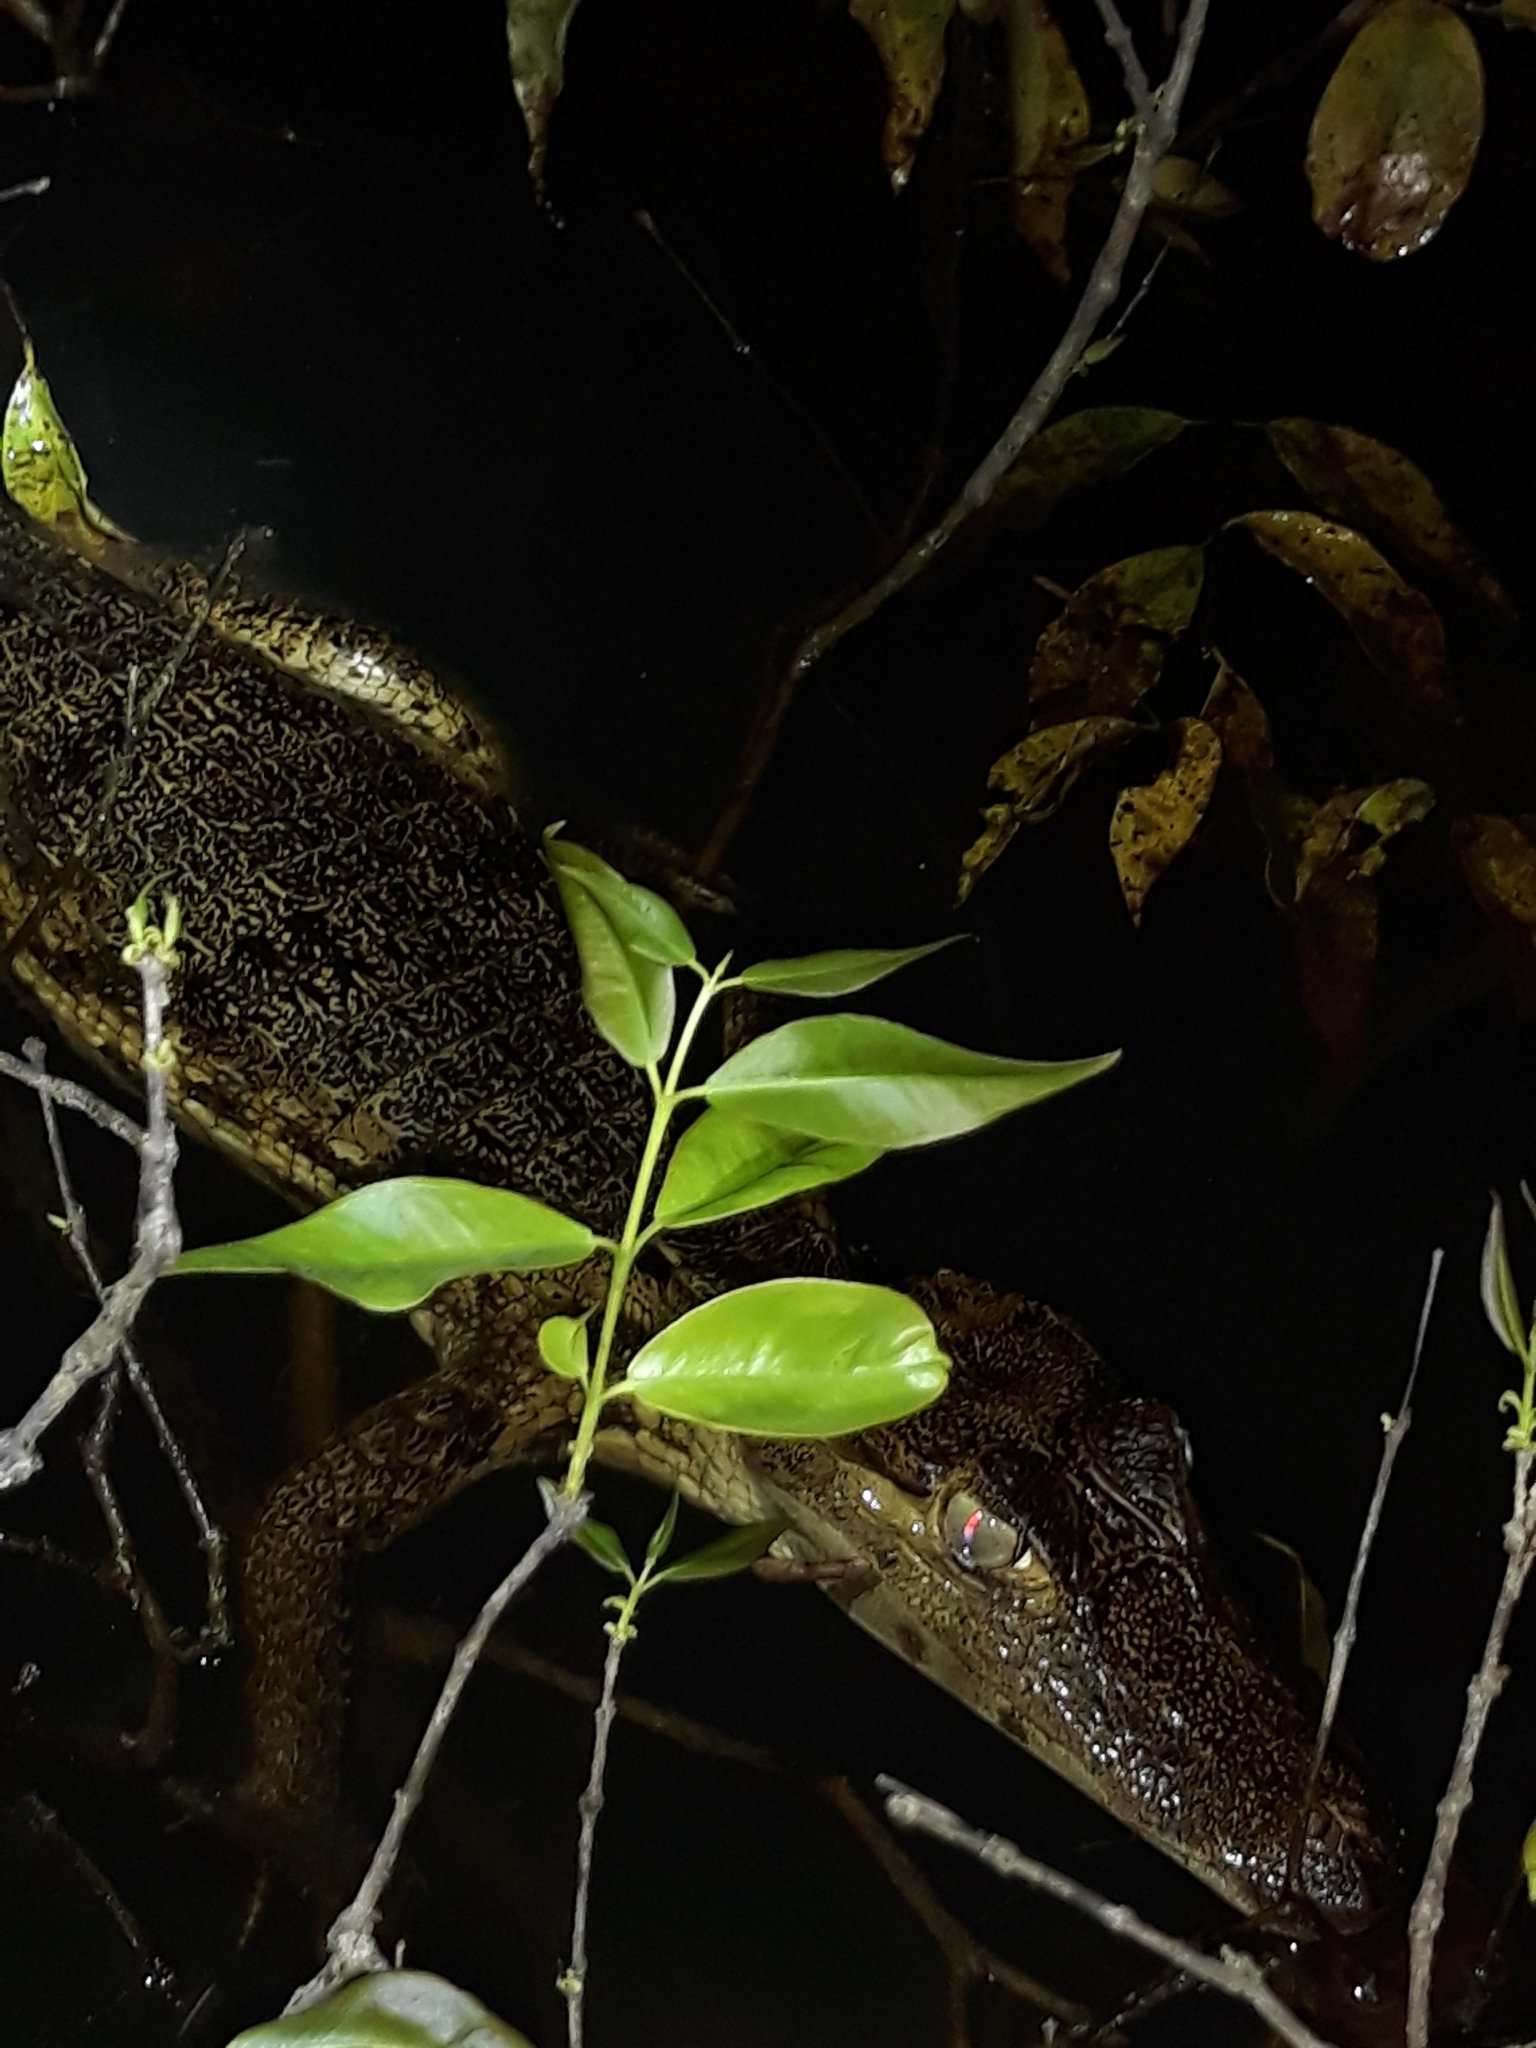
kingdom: Animalia
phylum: Chordata
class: Crocodylia
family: Alligatoridae
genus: Caiman
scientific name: Caiman crocodilus
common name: Common caiman
